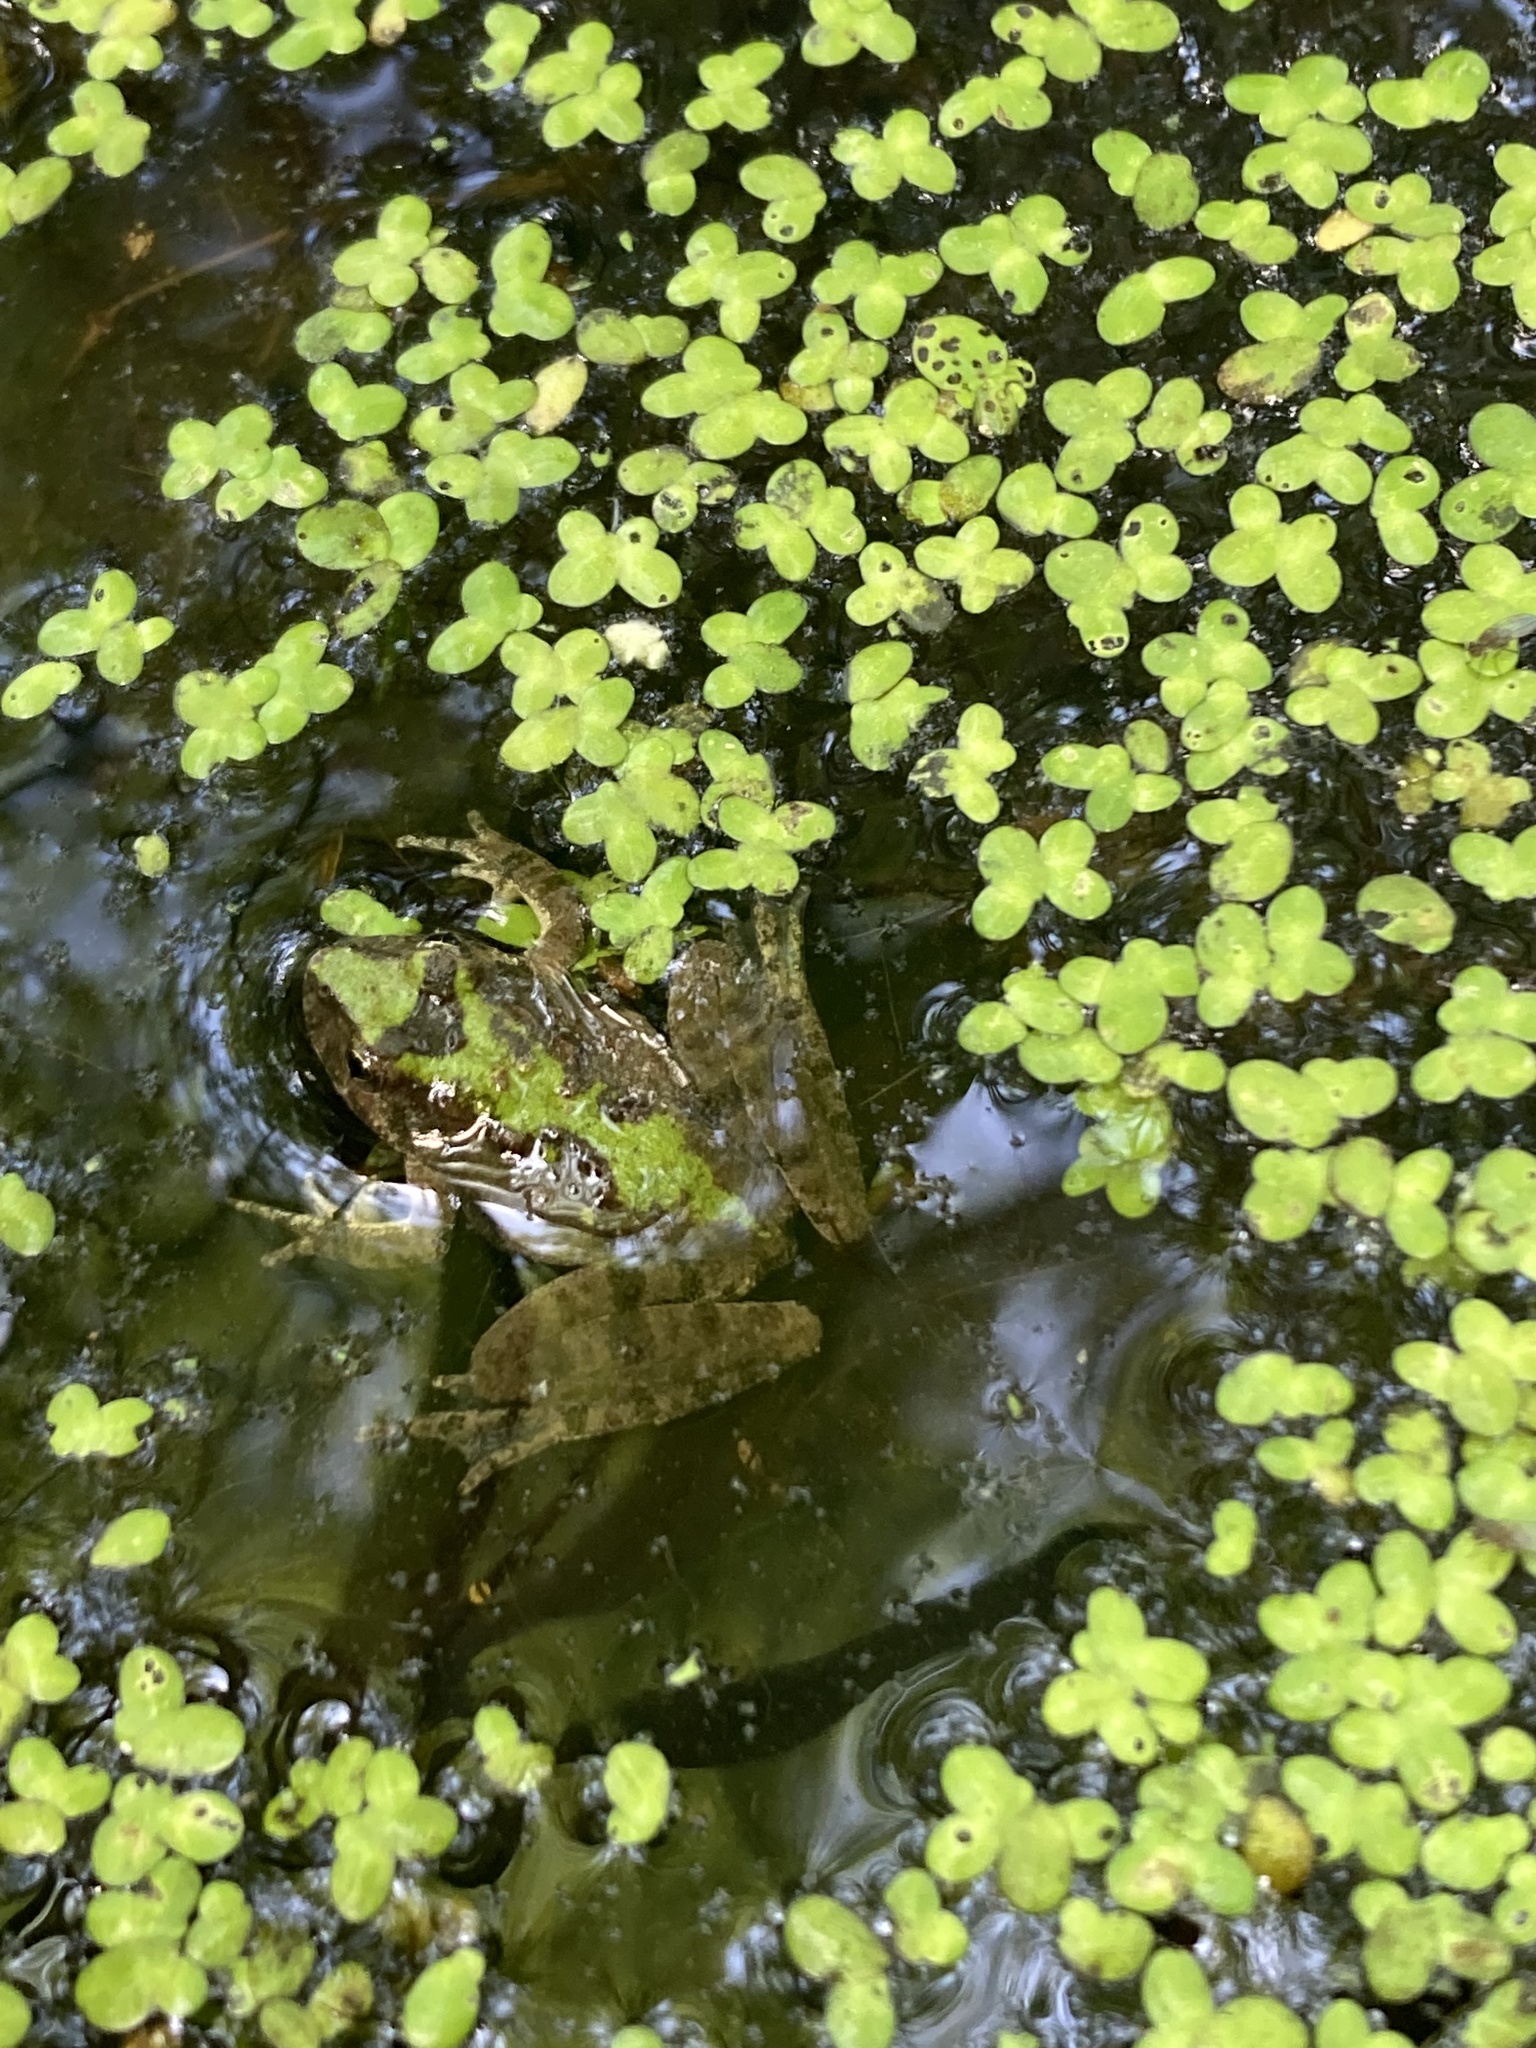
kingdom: Animalia
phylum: Chordata
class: Amphibia
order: Anura
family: Hylidae
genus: Acris
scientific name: Acris blanchardi
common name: Blanchard's cricket frog
